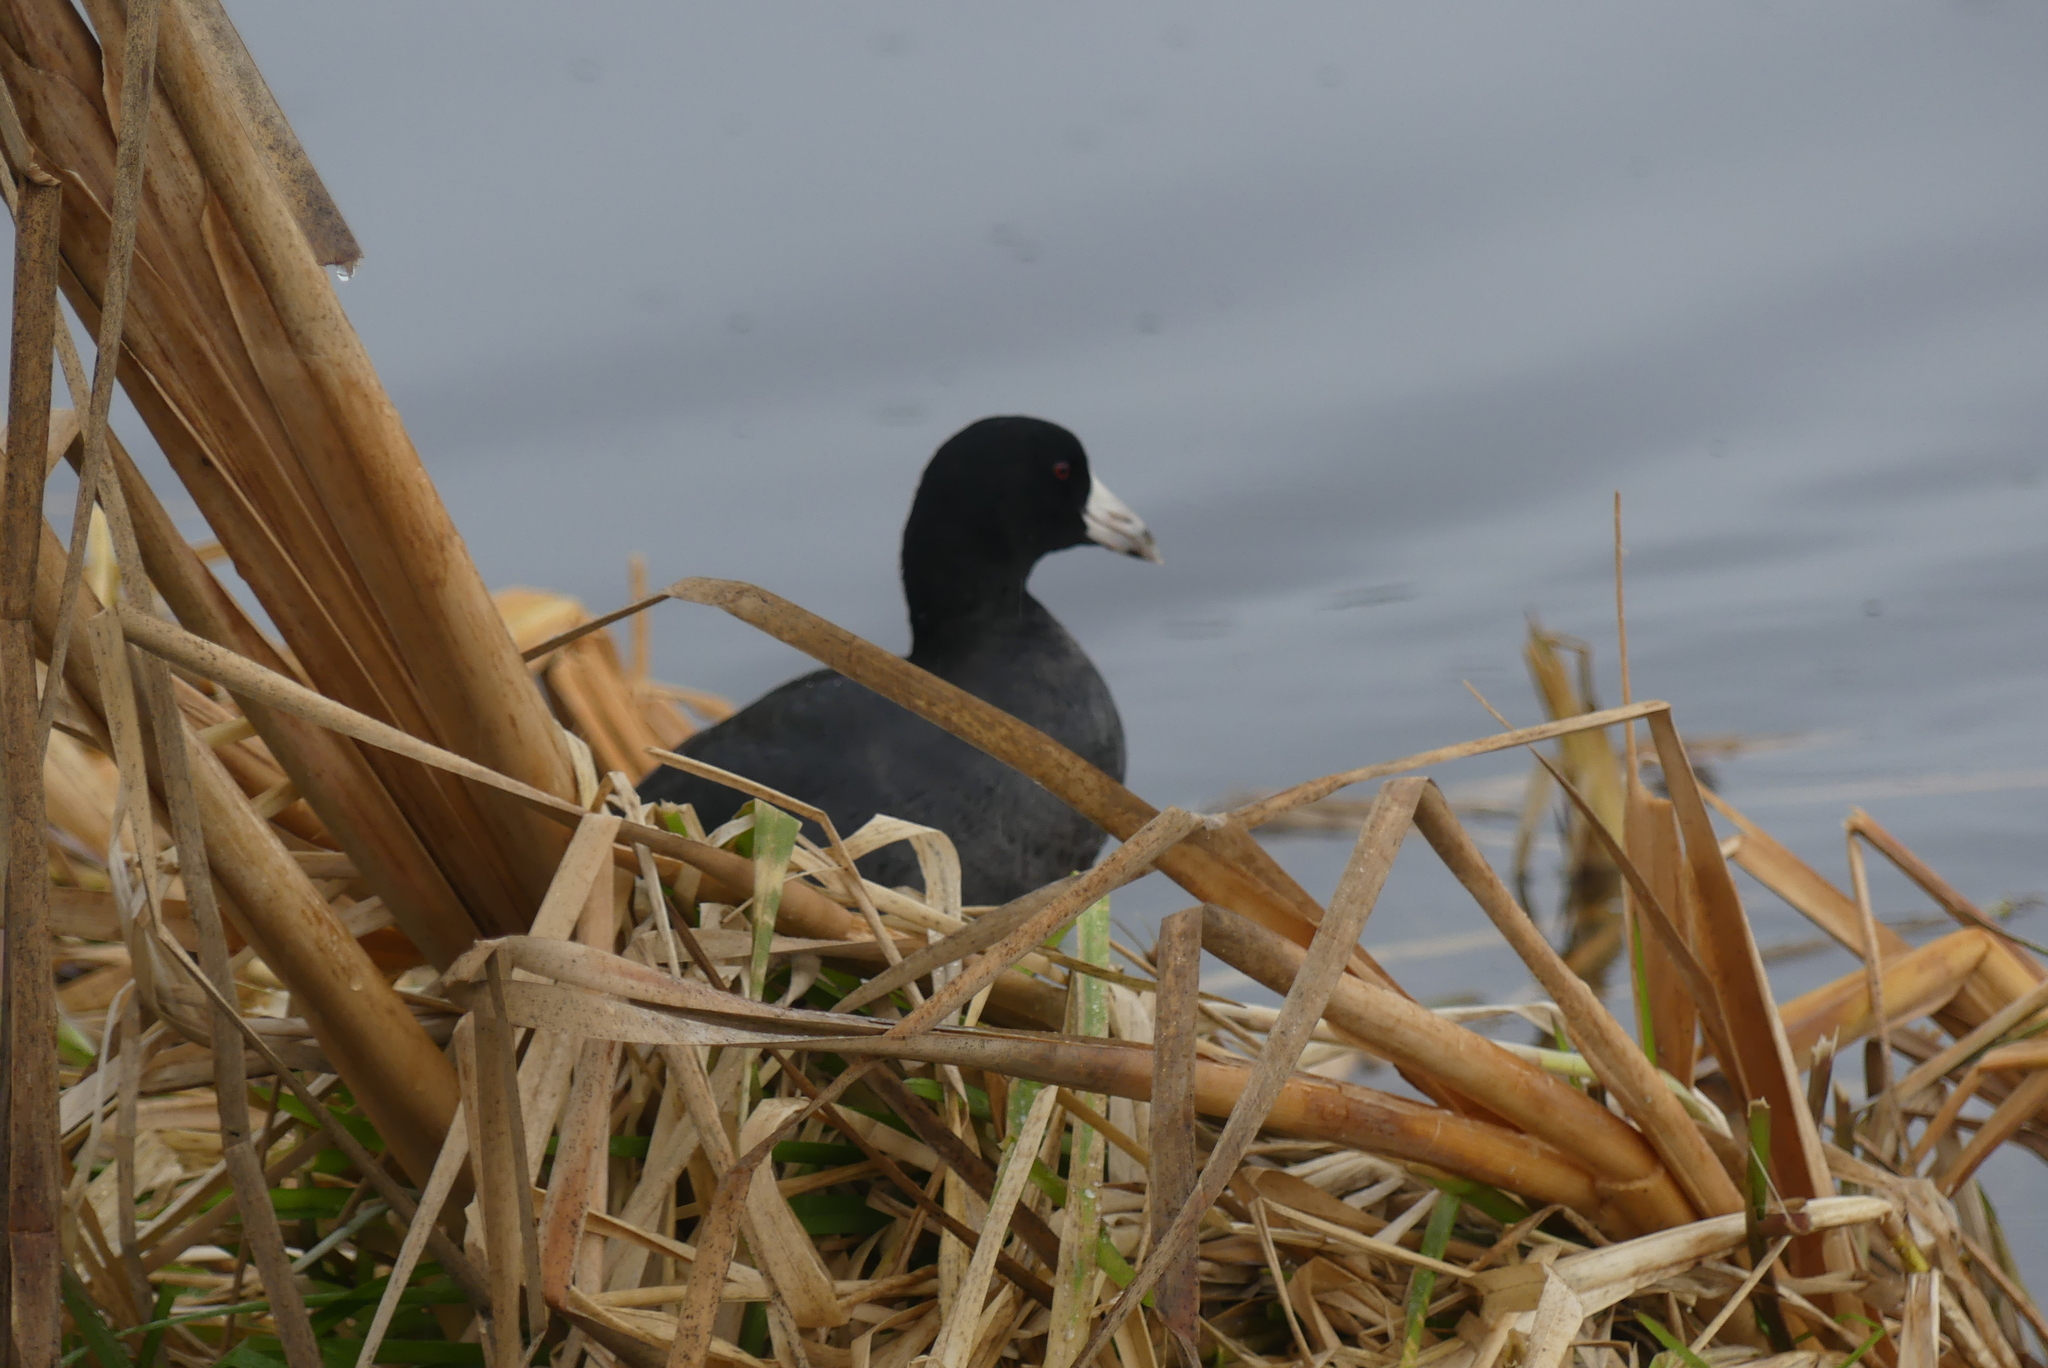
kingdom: Animalia
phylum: Chordata
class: Aves
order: Gruiformes
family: Rallidae
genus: Fulica
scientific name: Fulica americana
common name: American coot
